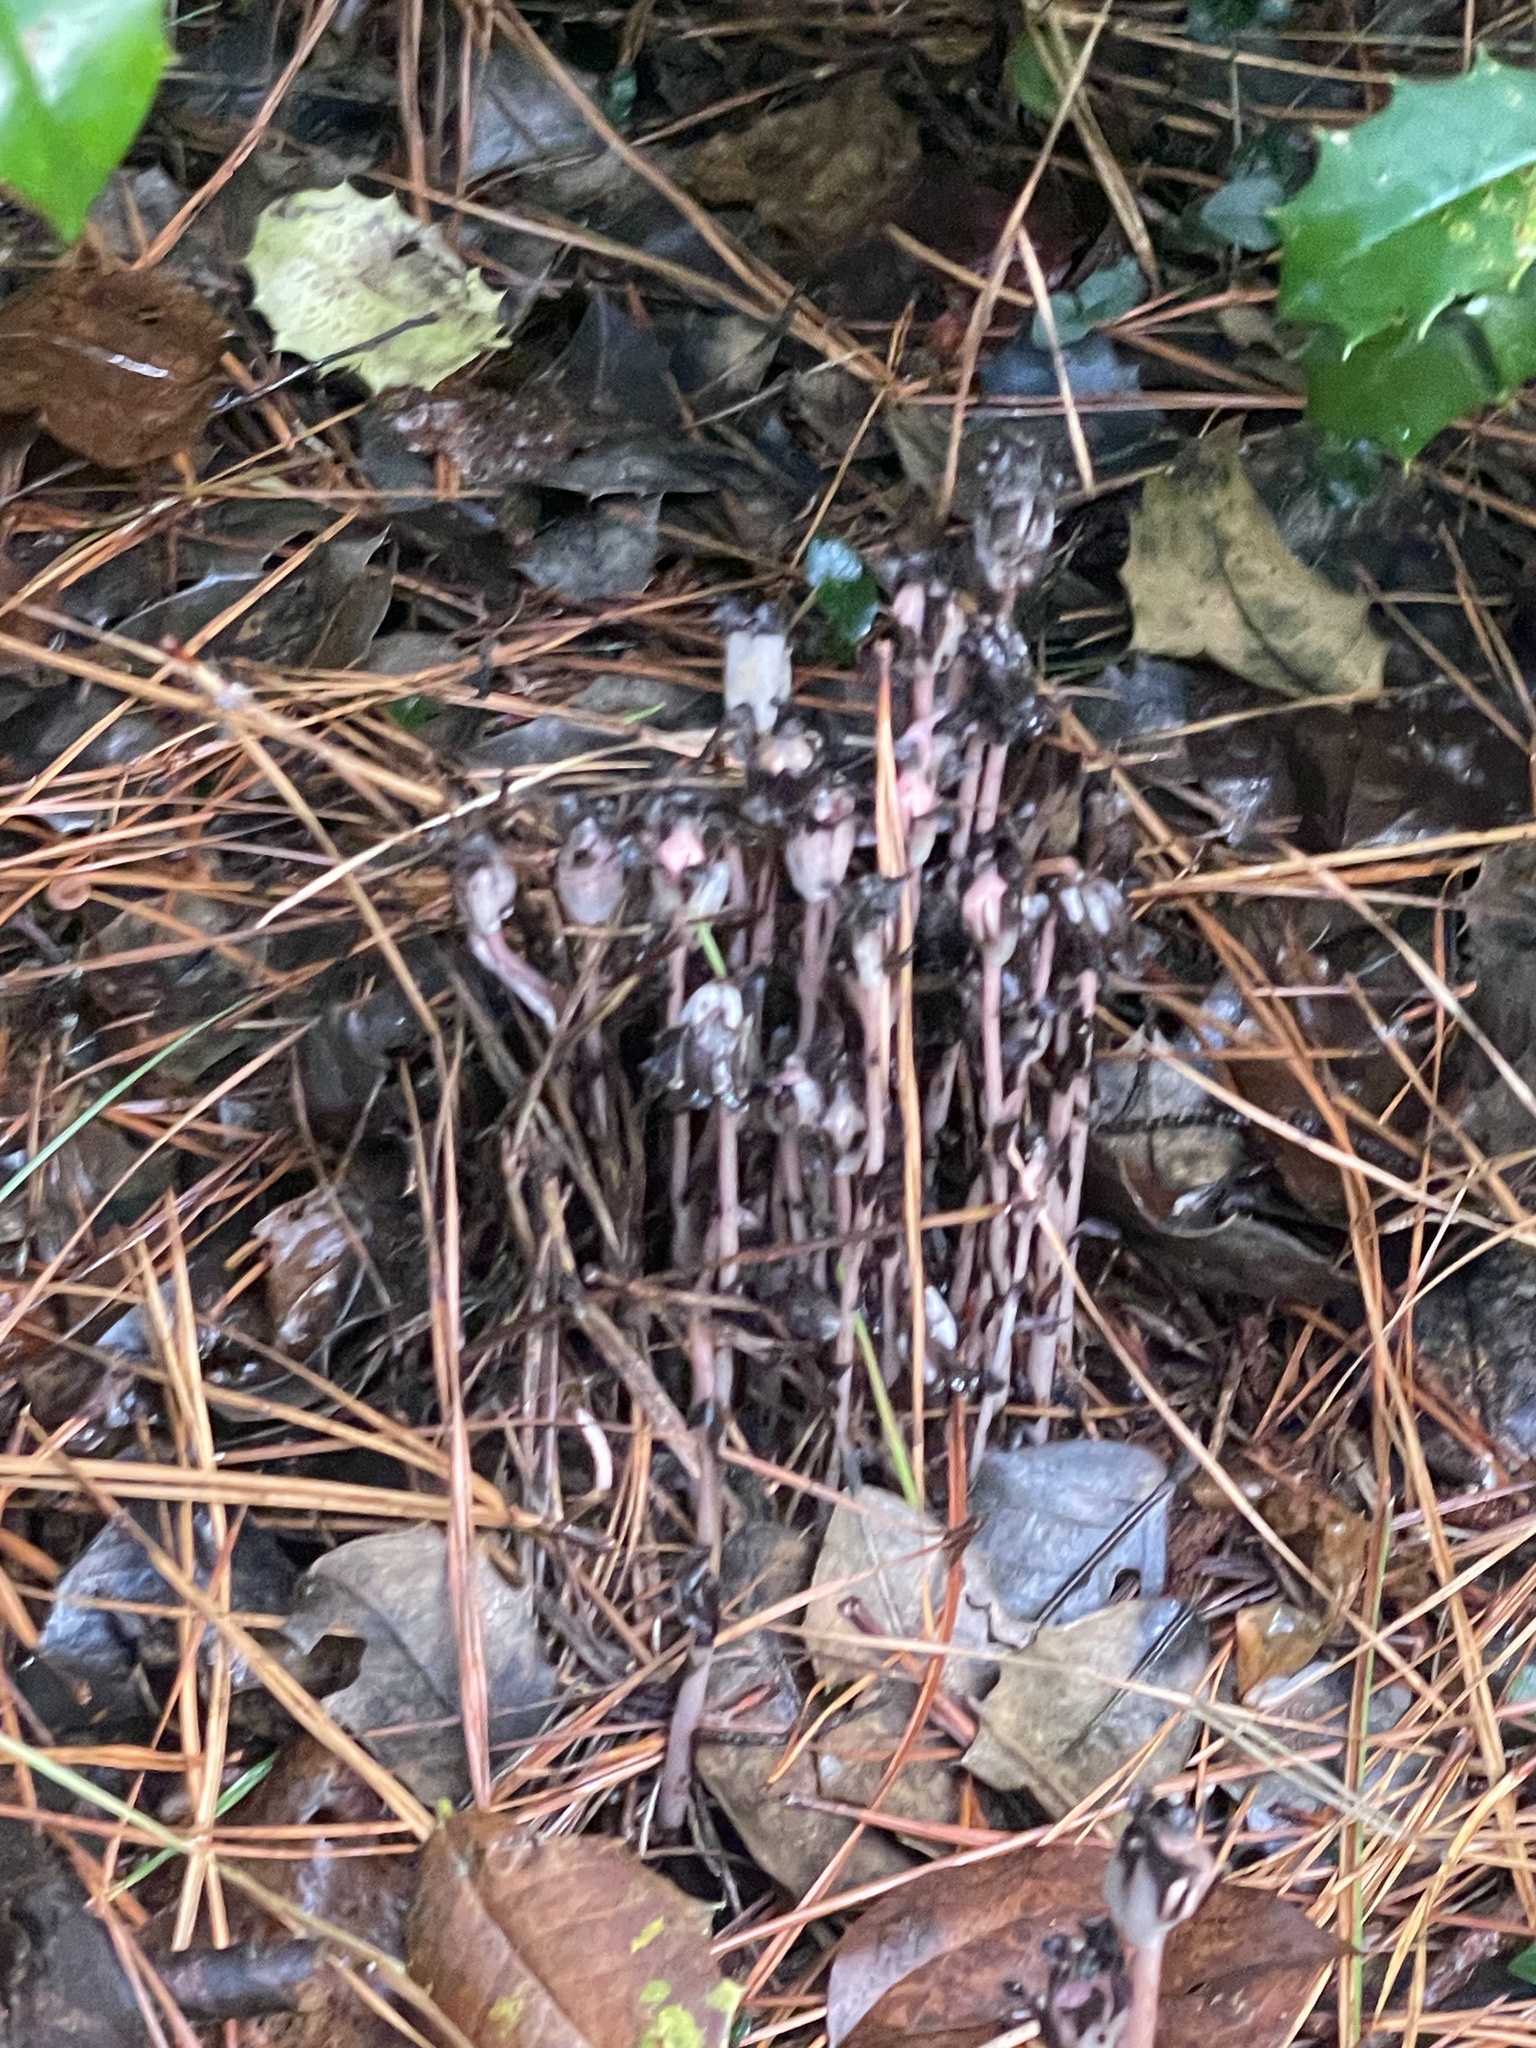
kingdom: Plantae
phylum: Tracheophyta
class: Magnoliopsida
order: Ericales
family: Ericaceae
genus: Monotropa
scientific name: Monotropa uniflora
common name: Convulsion root
